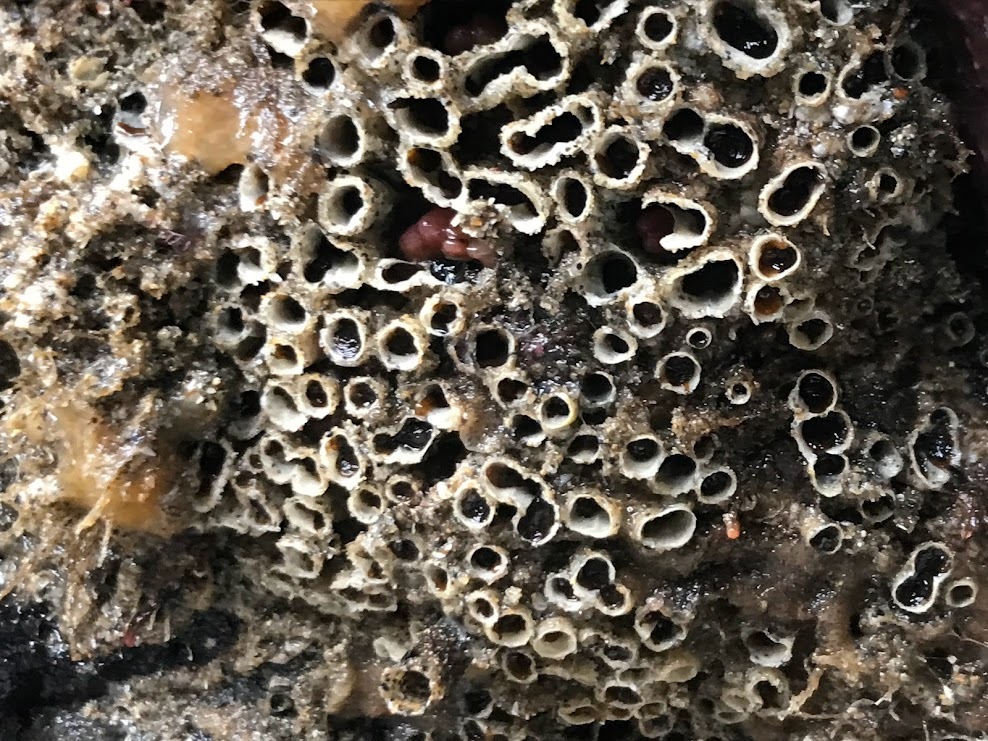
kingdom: Animalia
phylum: Annelida
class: Polychaeta
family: Cirratulidae
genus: Dodecaceria
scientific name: Dodecaceria pacifica
